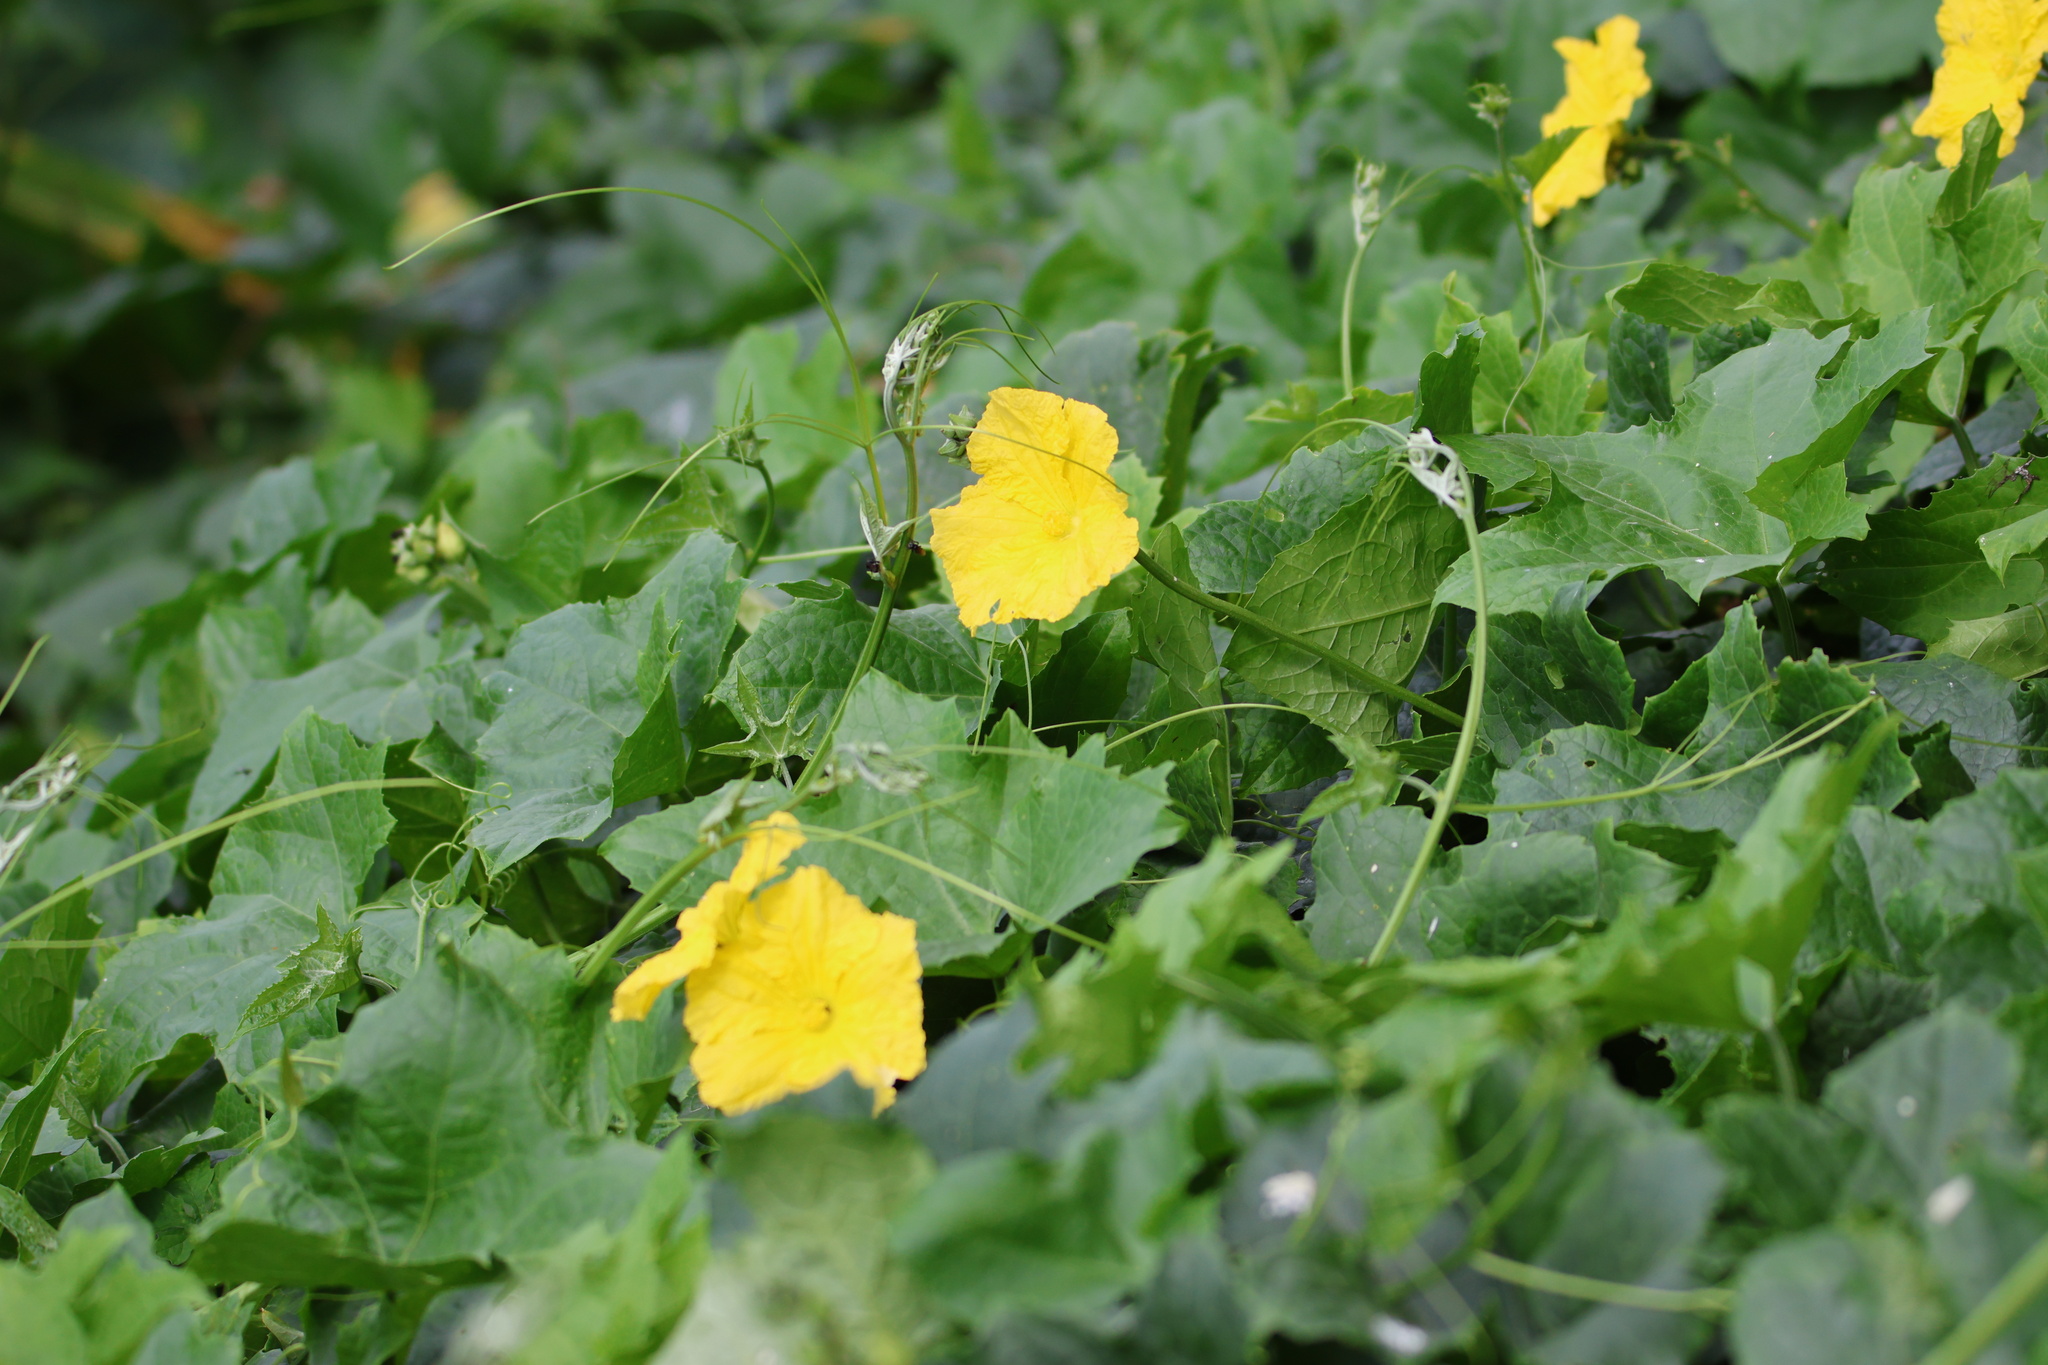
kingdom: Plantae
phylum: Tracheophyta
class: Magnoliopsida
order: Cucurbitales
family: Cucurbitaceae
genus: Luffa
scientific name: Luffa aegyptiaca
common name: Sponge gourd
